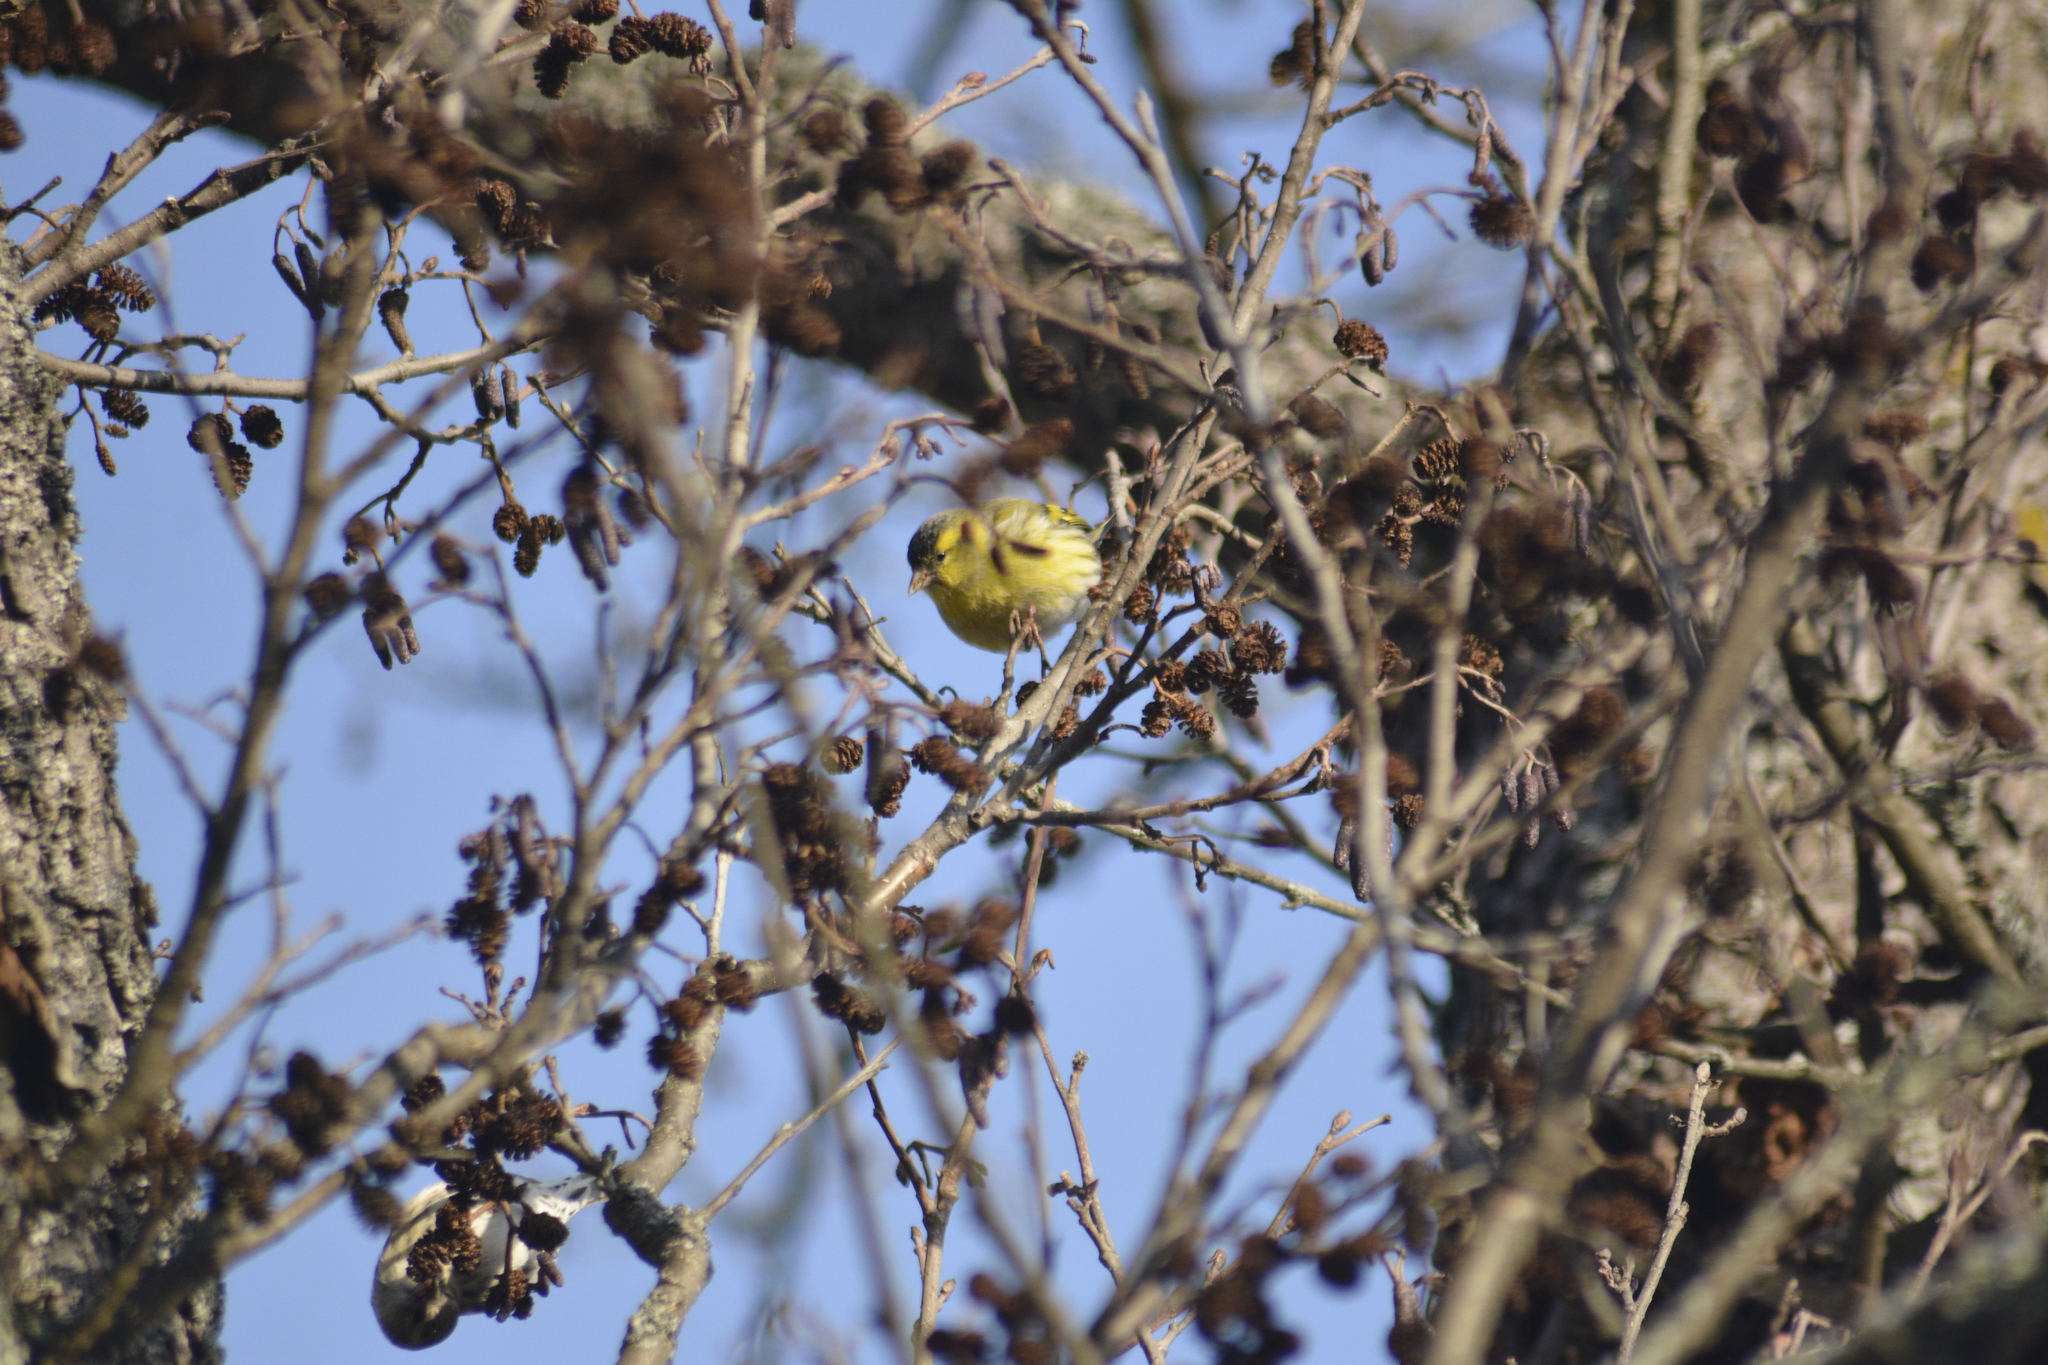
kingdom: Animalia
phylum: Chordata
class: Aves
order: Passeriformes
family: Fringillidae
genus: Spinus
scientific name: Spinus spinus
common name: Eurasian siskin
